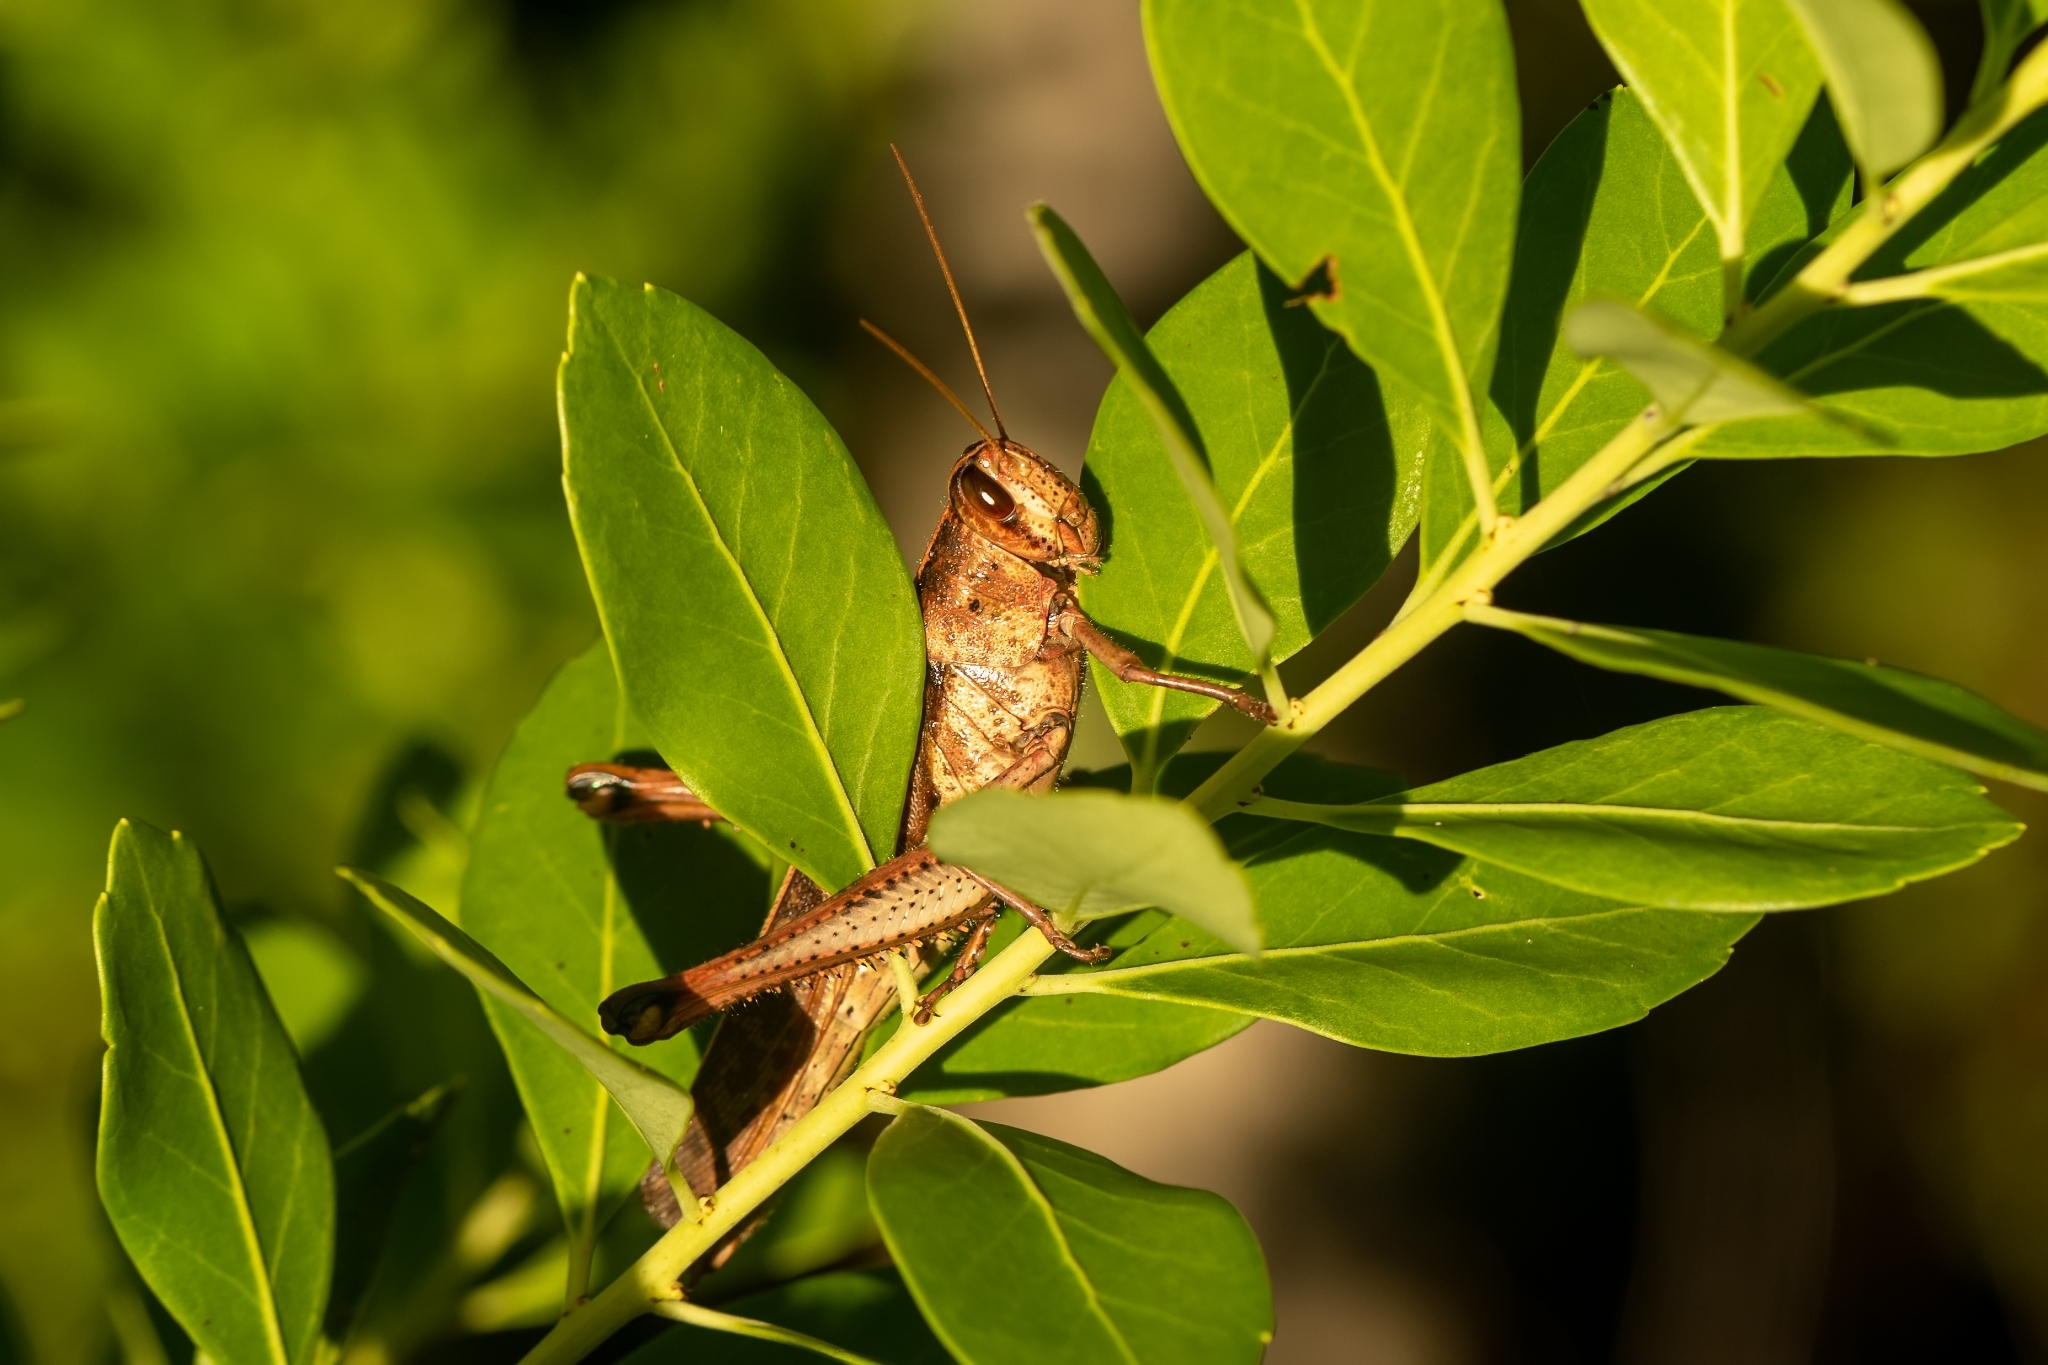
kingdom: Animalia
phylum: Arthropoda
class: Insecta
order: Orthoptera
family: Acrididae
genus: Schistocerca
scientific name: Schistocerca alutacea
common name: Leather-colored bird locust
